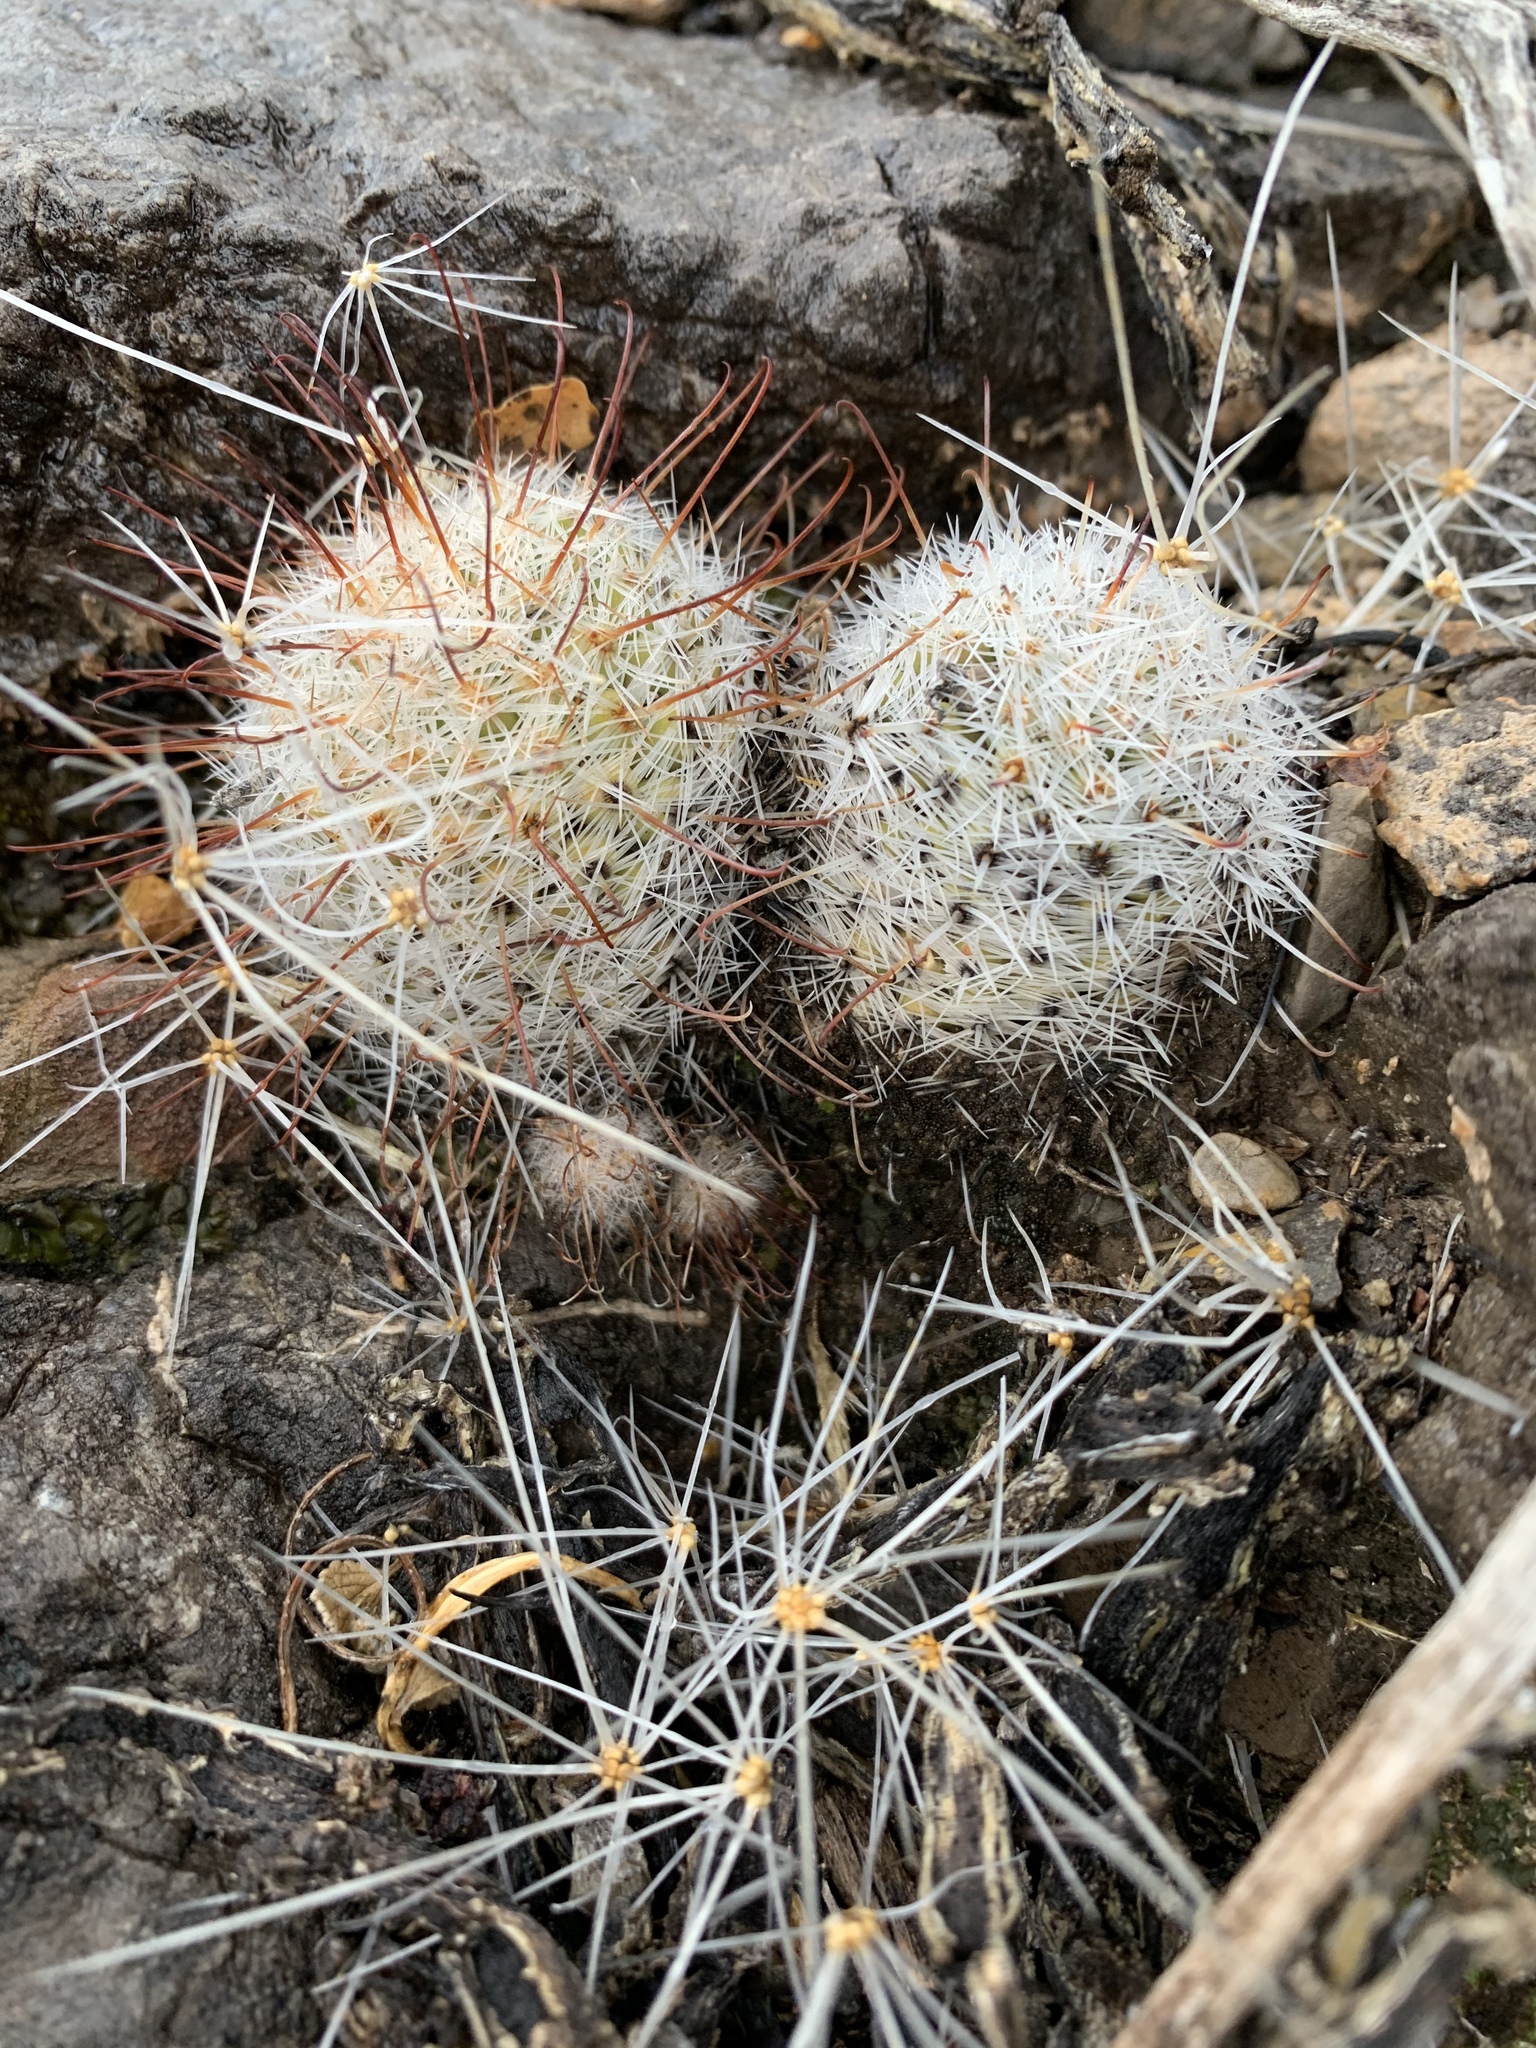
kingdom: Plantae
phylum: Tracheophyta
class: Magnoliopsida
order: Caryophyllales
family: Cactaceae
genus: Pelecyphora
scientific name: Pelecyphora tuberculosa
